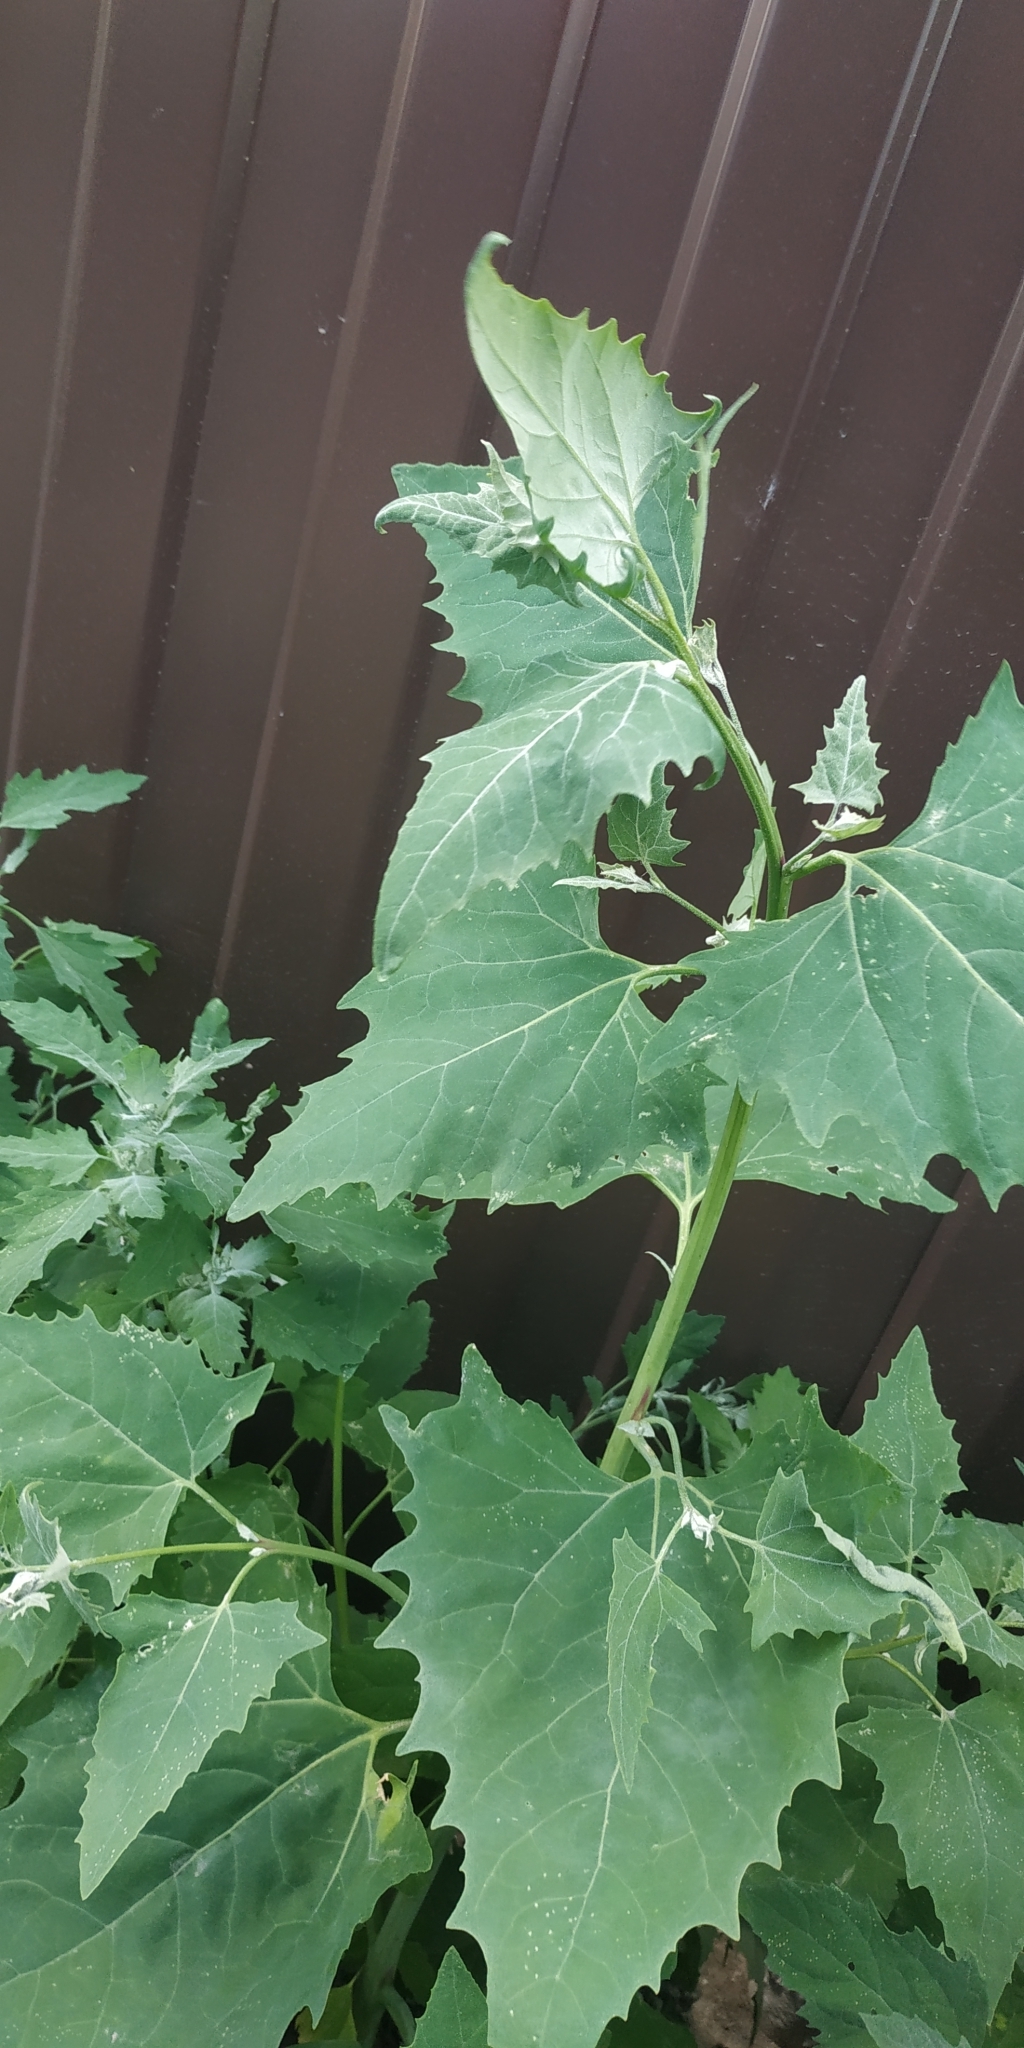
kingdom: Plantae
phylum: Tracheophyta
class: Magnoliopsida
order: Caryophyllales
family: Amaranthaceae
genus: Atriplex
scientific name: Atriplex sagittata
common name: Purple orache
